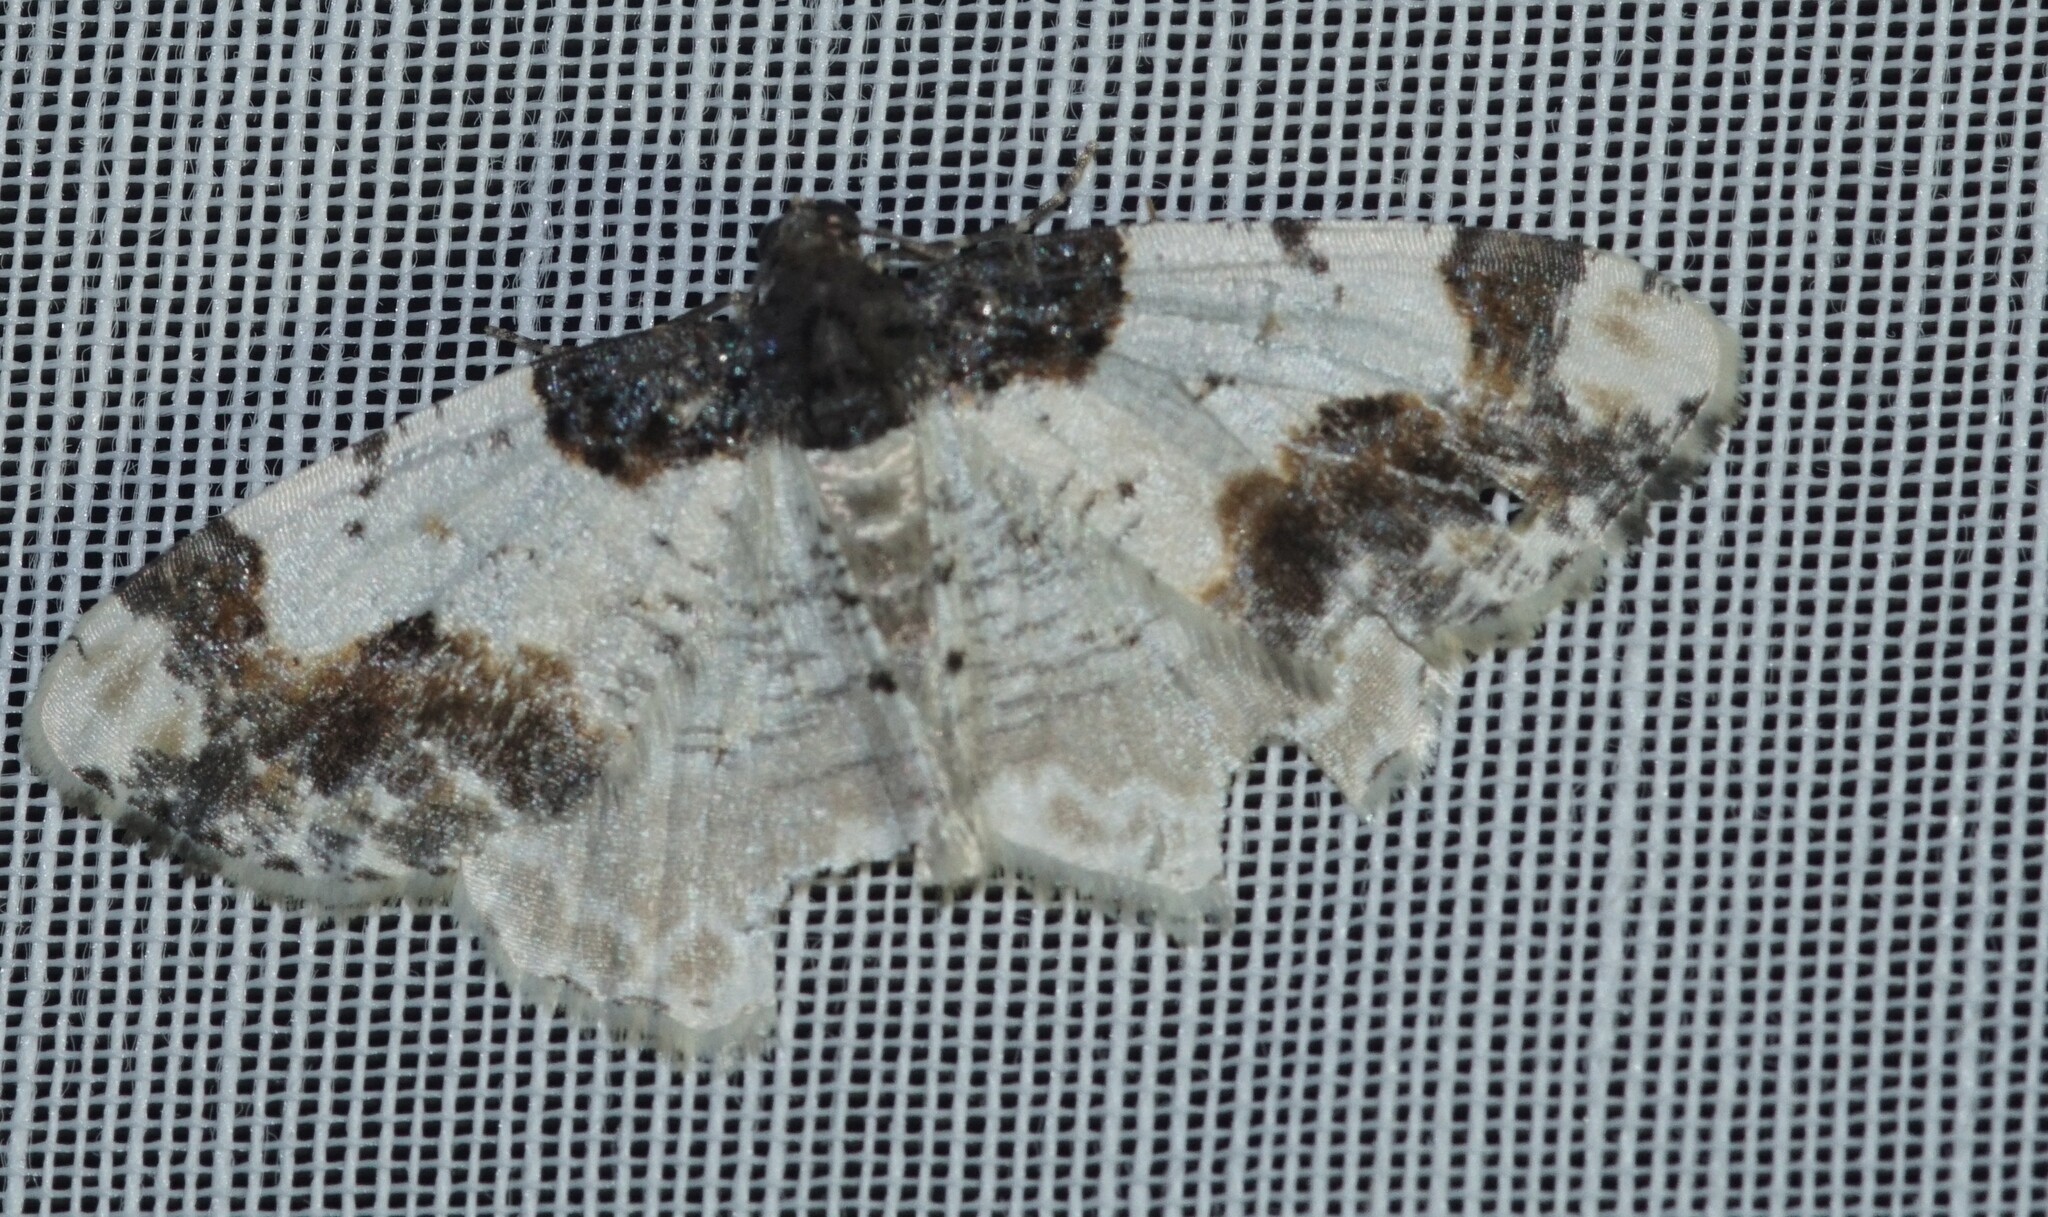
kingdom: Animalia
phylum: Arthropoda
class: Insecta
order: Lepidoptera
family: Geometridae
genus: Ligdia
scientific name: Ligdia adustata
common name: Scorched carpet
